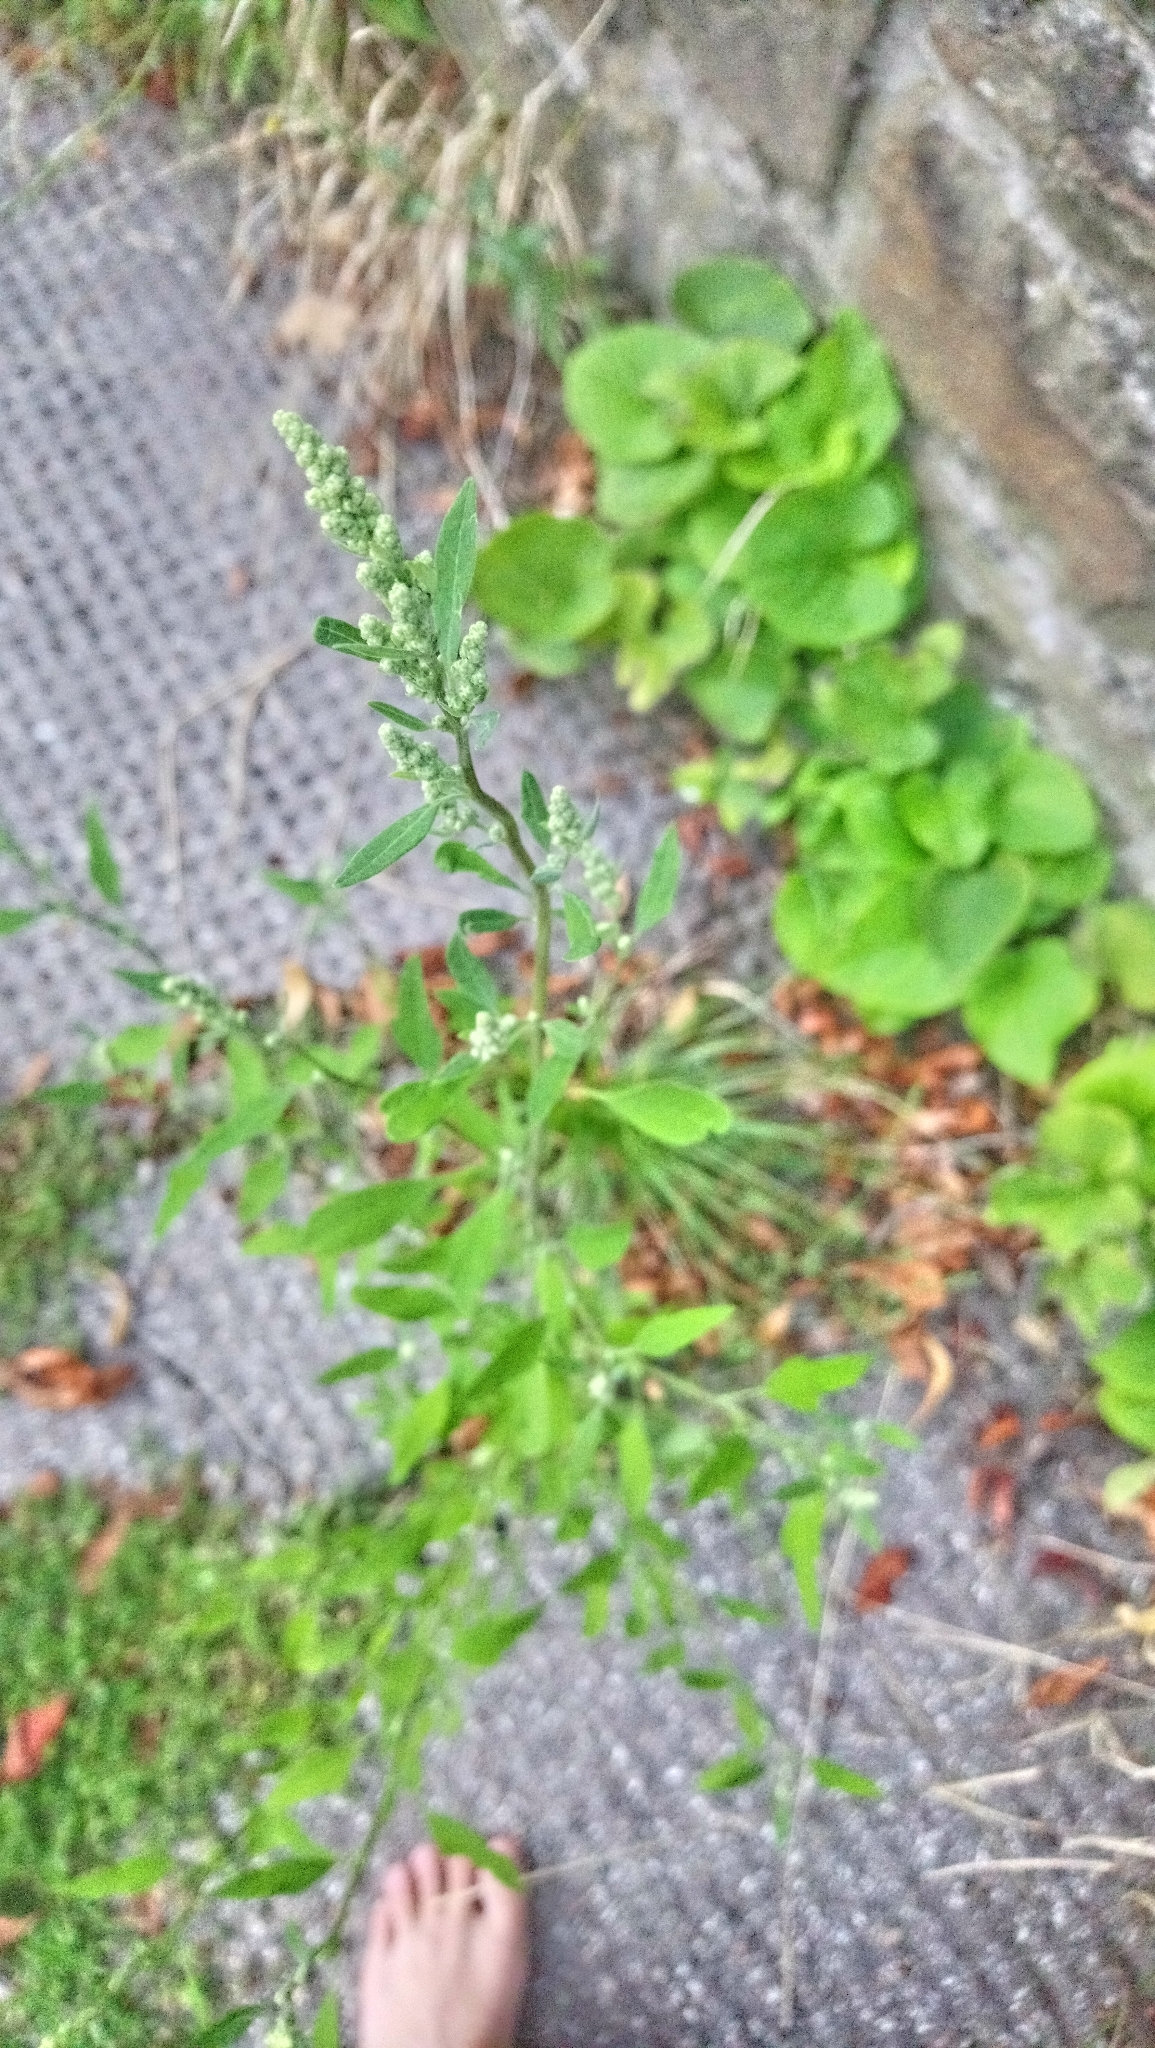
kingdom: Plantae
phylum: Tracheophyta
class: Magnoliopsida
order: Caryophyllales
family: Amaranthaceae
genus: Chenopodium
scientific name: Chenopodium album
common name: Fat-hen
